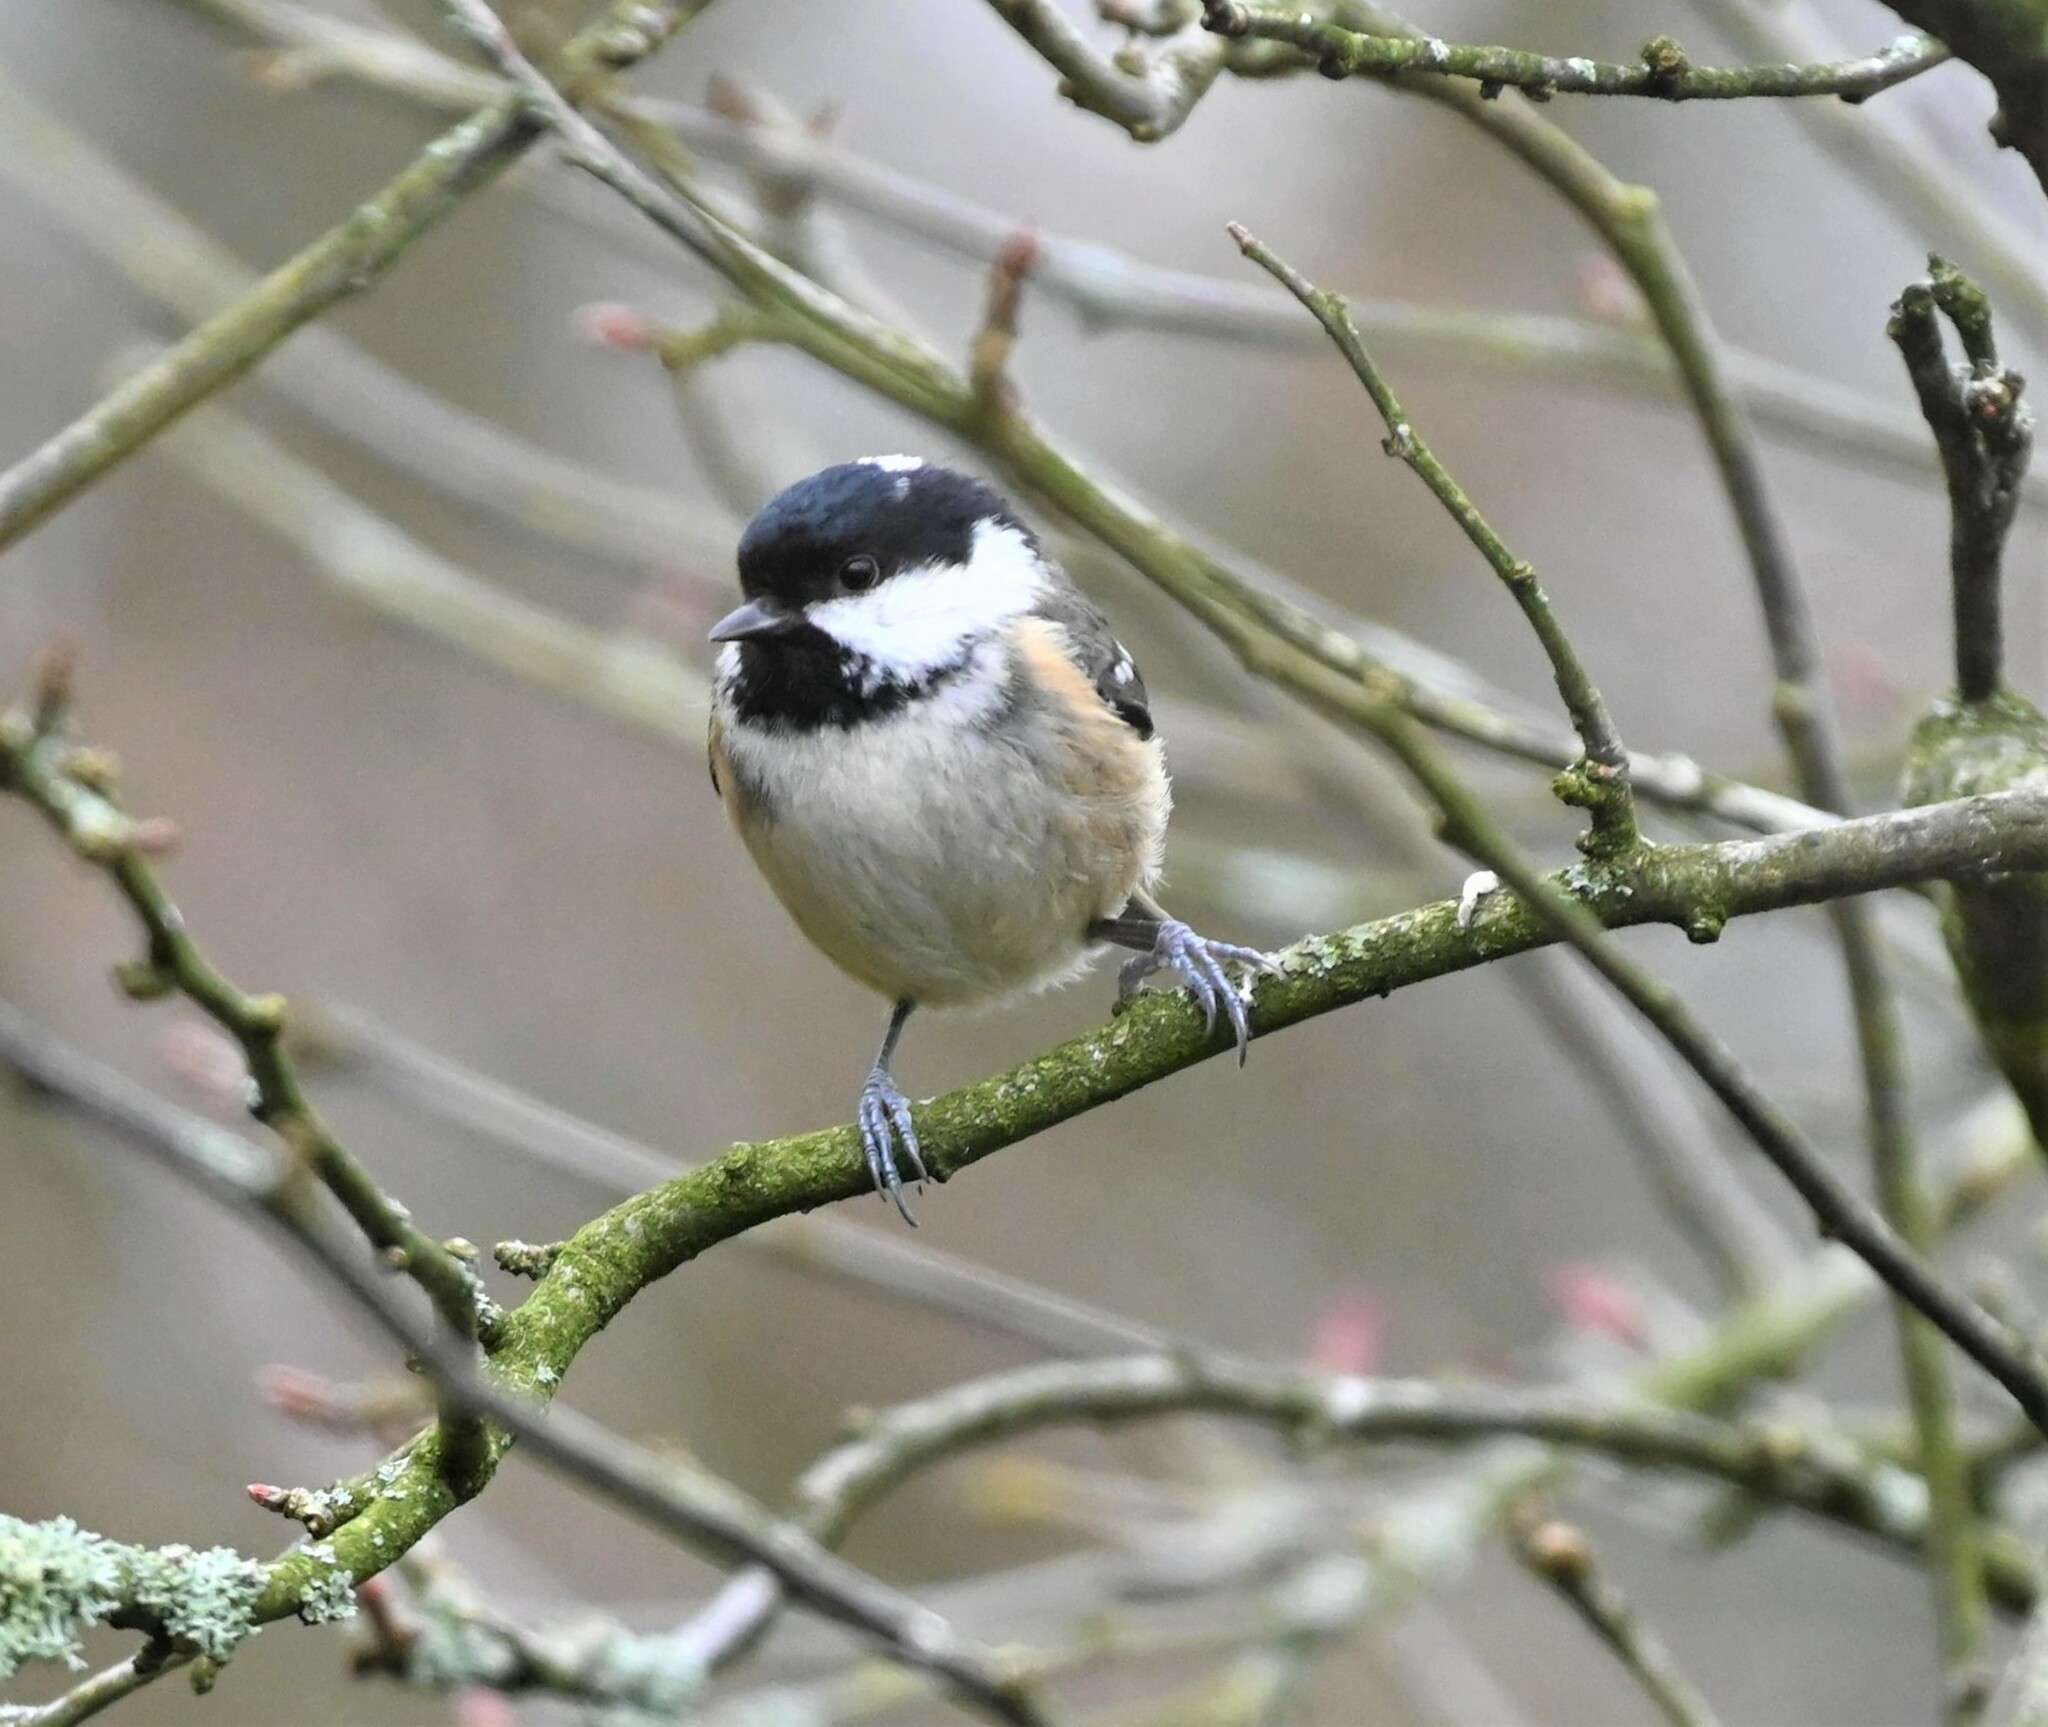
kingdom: Animalia
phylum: Chordata
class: Aves
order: Passeriformes
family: Paridae
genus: Periparus
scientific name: Periparus ater
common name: Coal tit
